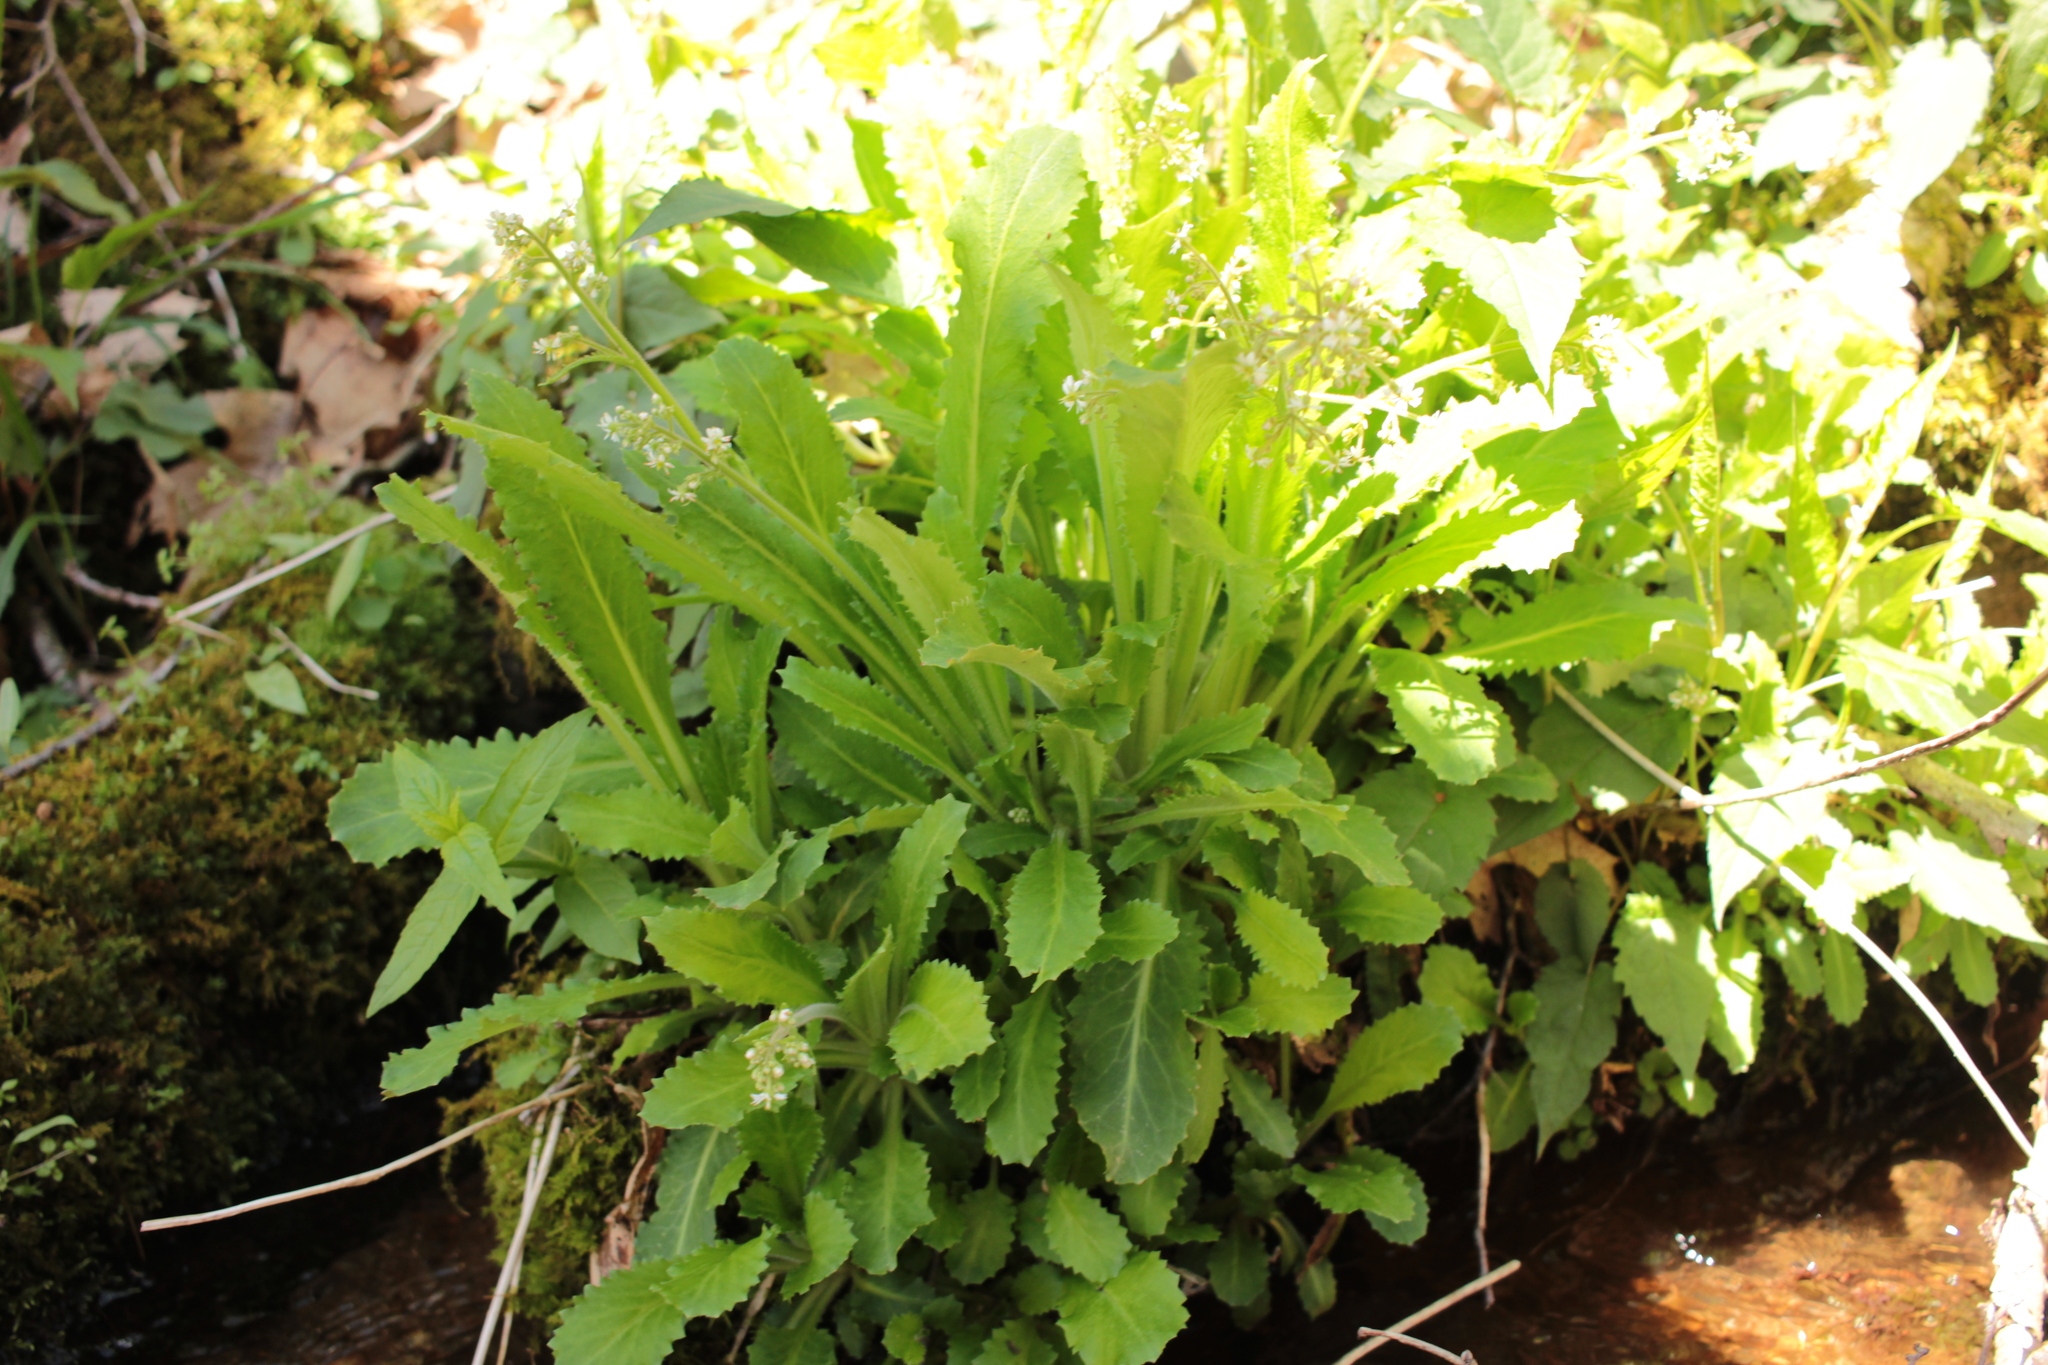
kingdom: Plantae
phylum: Tracheophyta
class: Magnoliopsida
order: Saxifragales
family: Saxifragaceae
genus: Micranthes
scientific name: Micranthes micranthidifolia
